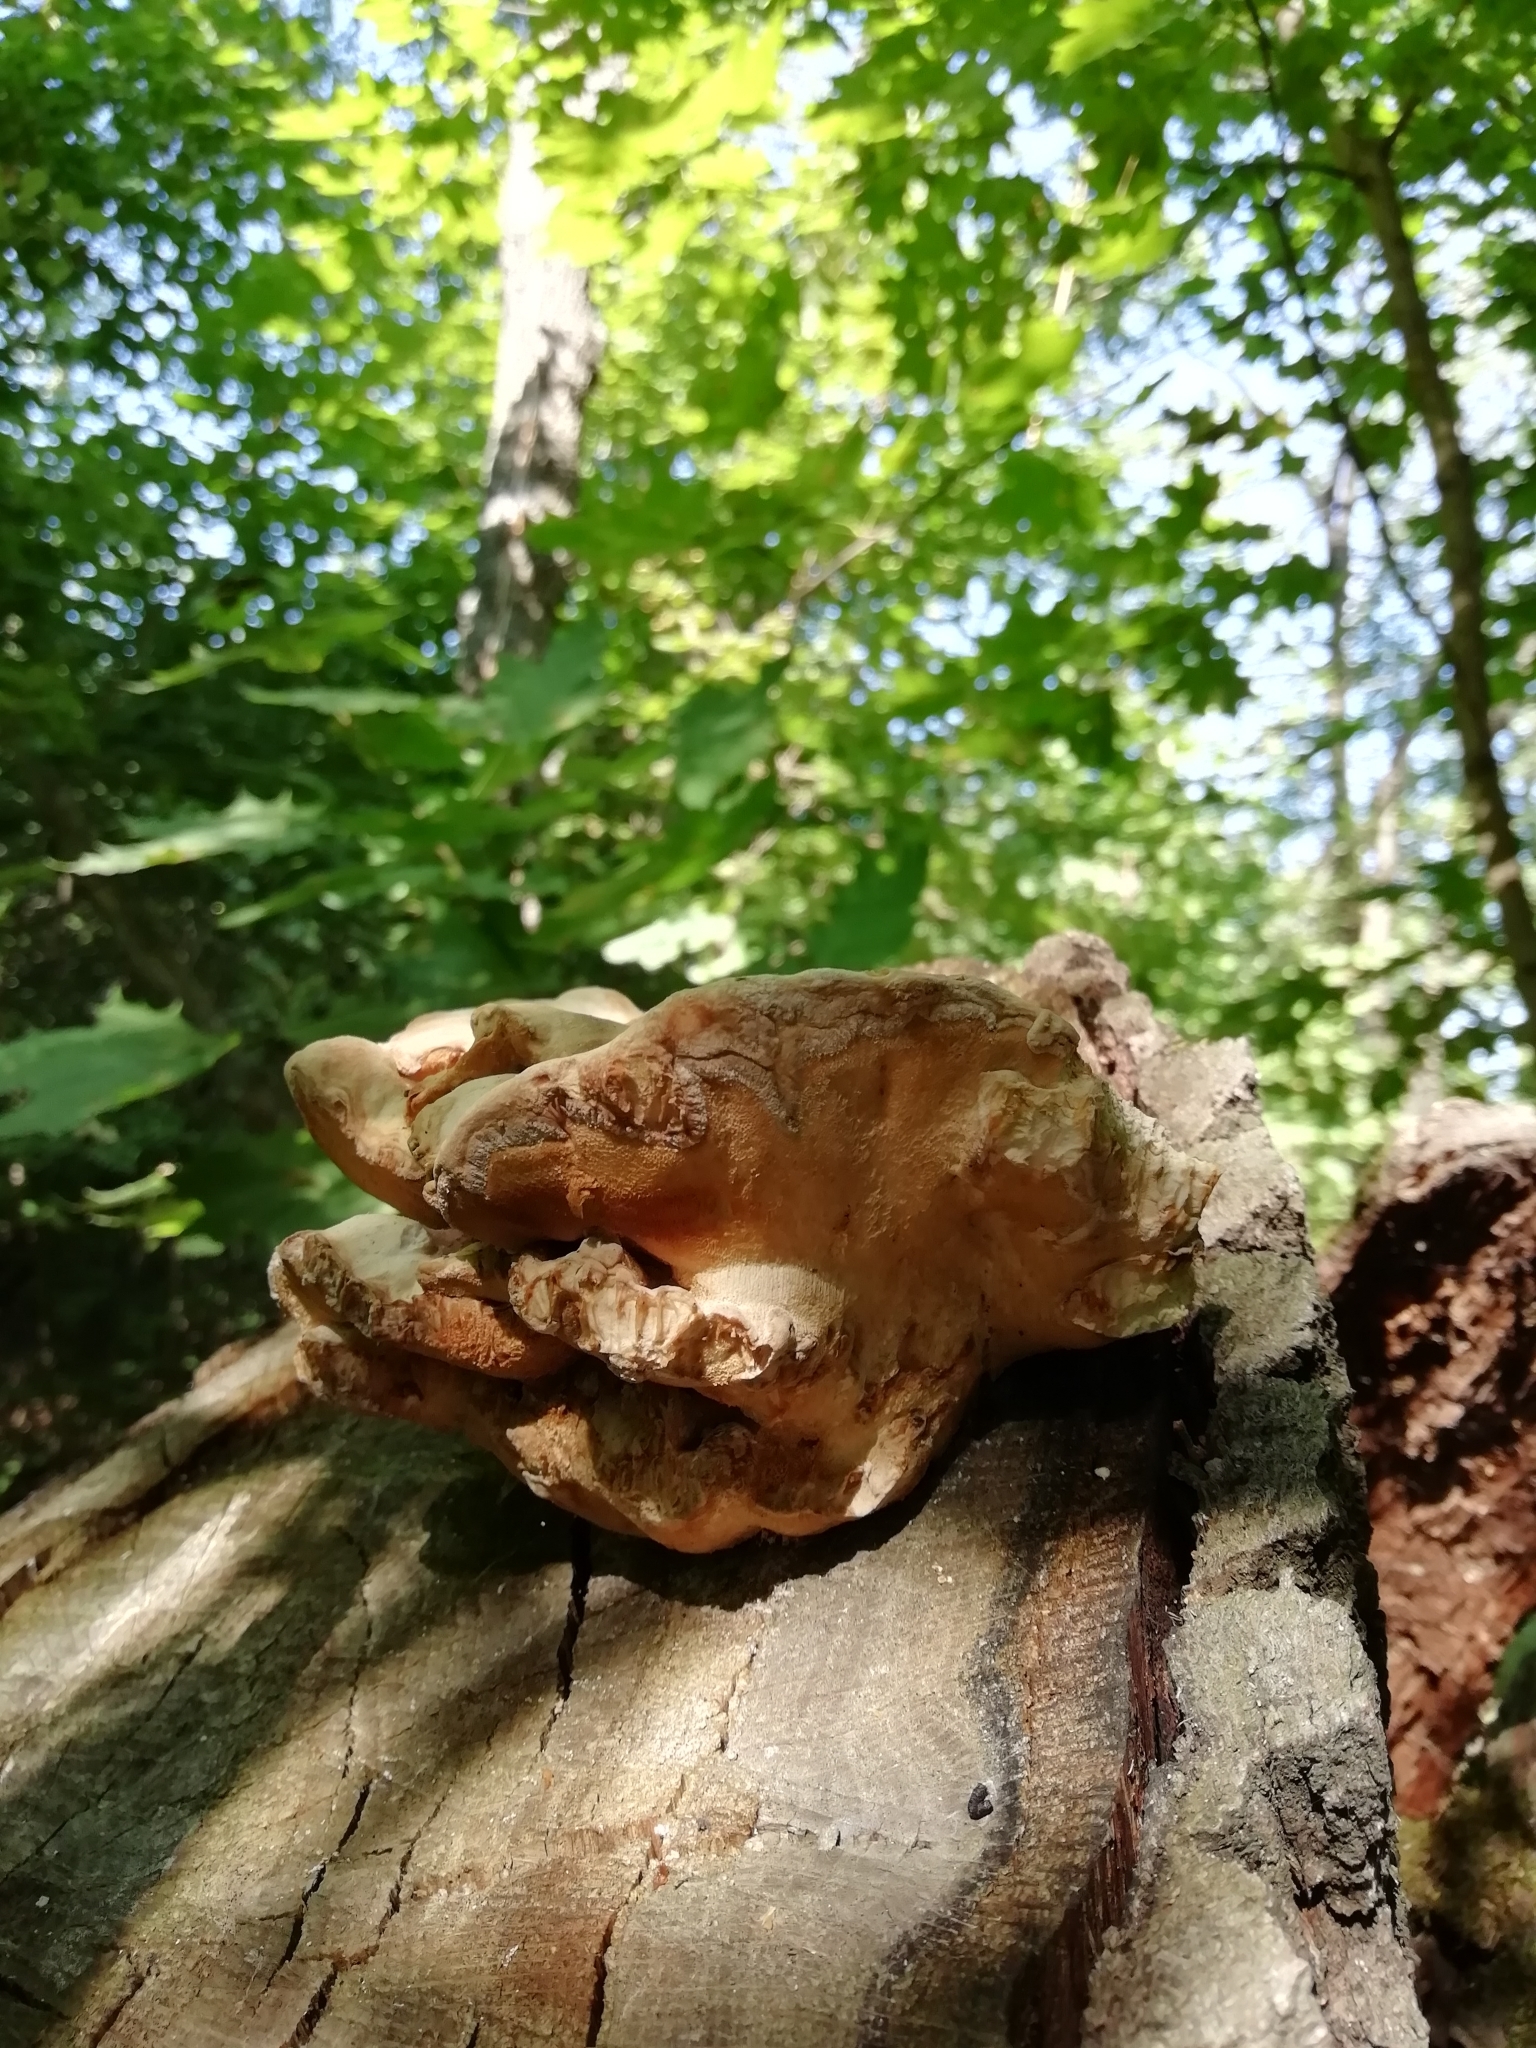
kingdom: Fungi
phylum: Basidiomycota
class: Agaricomycetes
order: Polyporales
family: Laetiporaceae
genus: Laetiporus
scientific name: Laetiporus sulphureus
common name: Chicken of the woods
